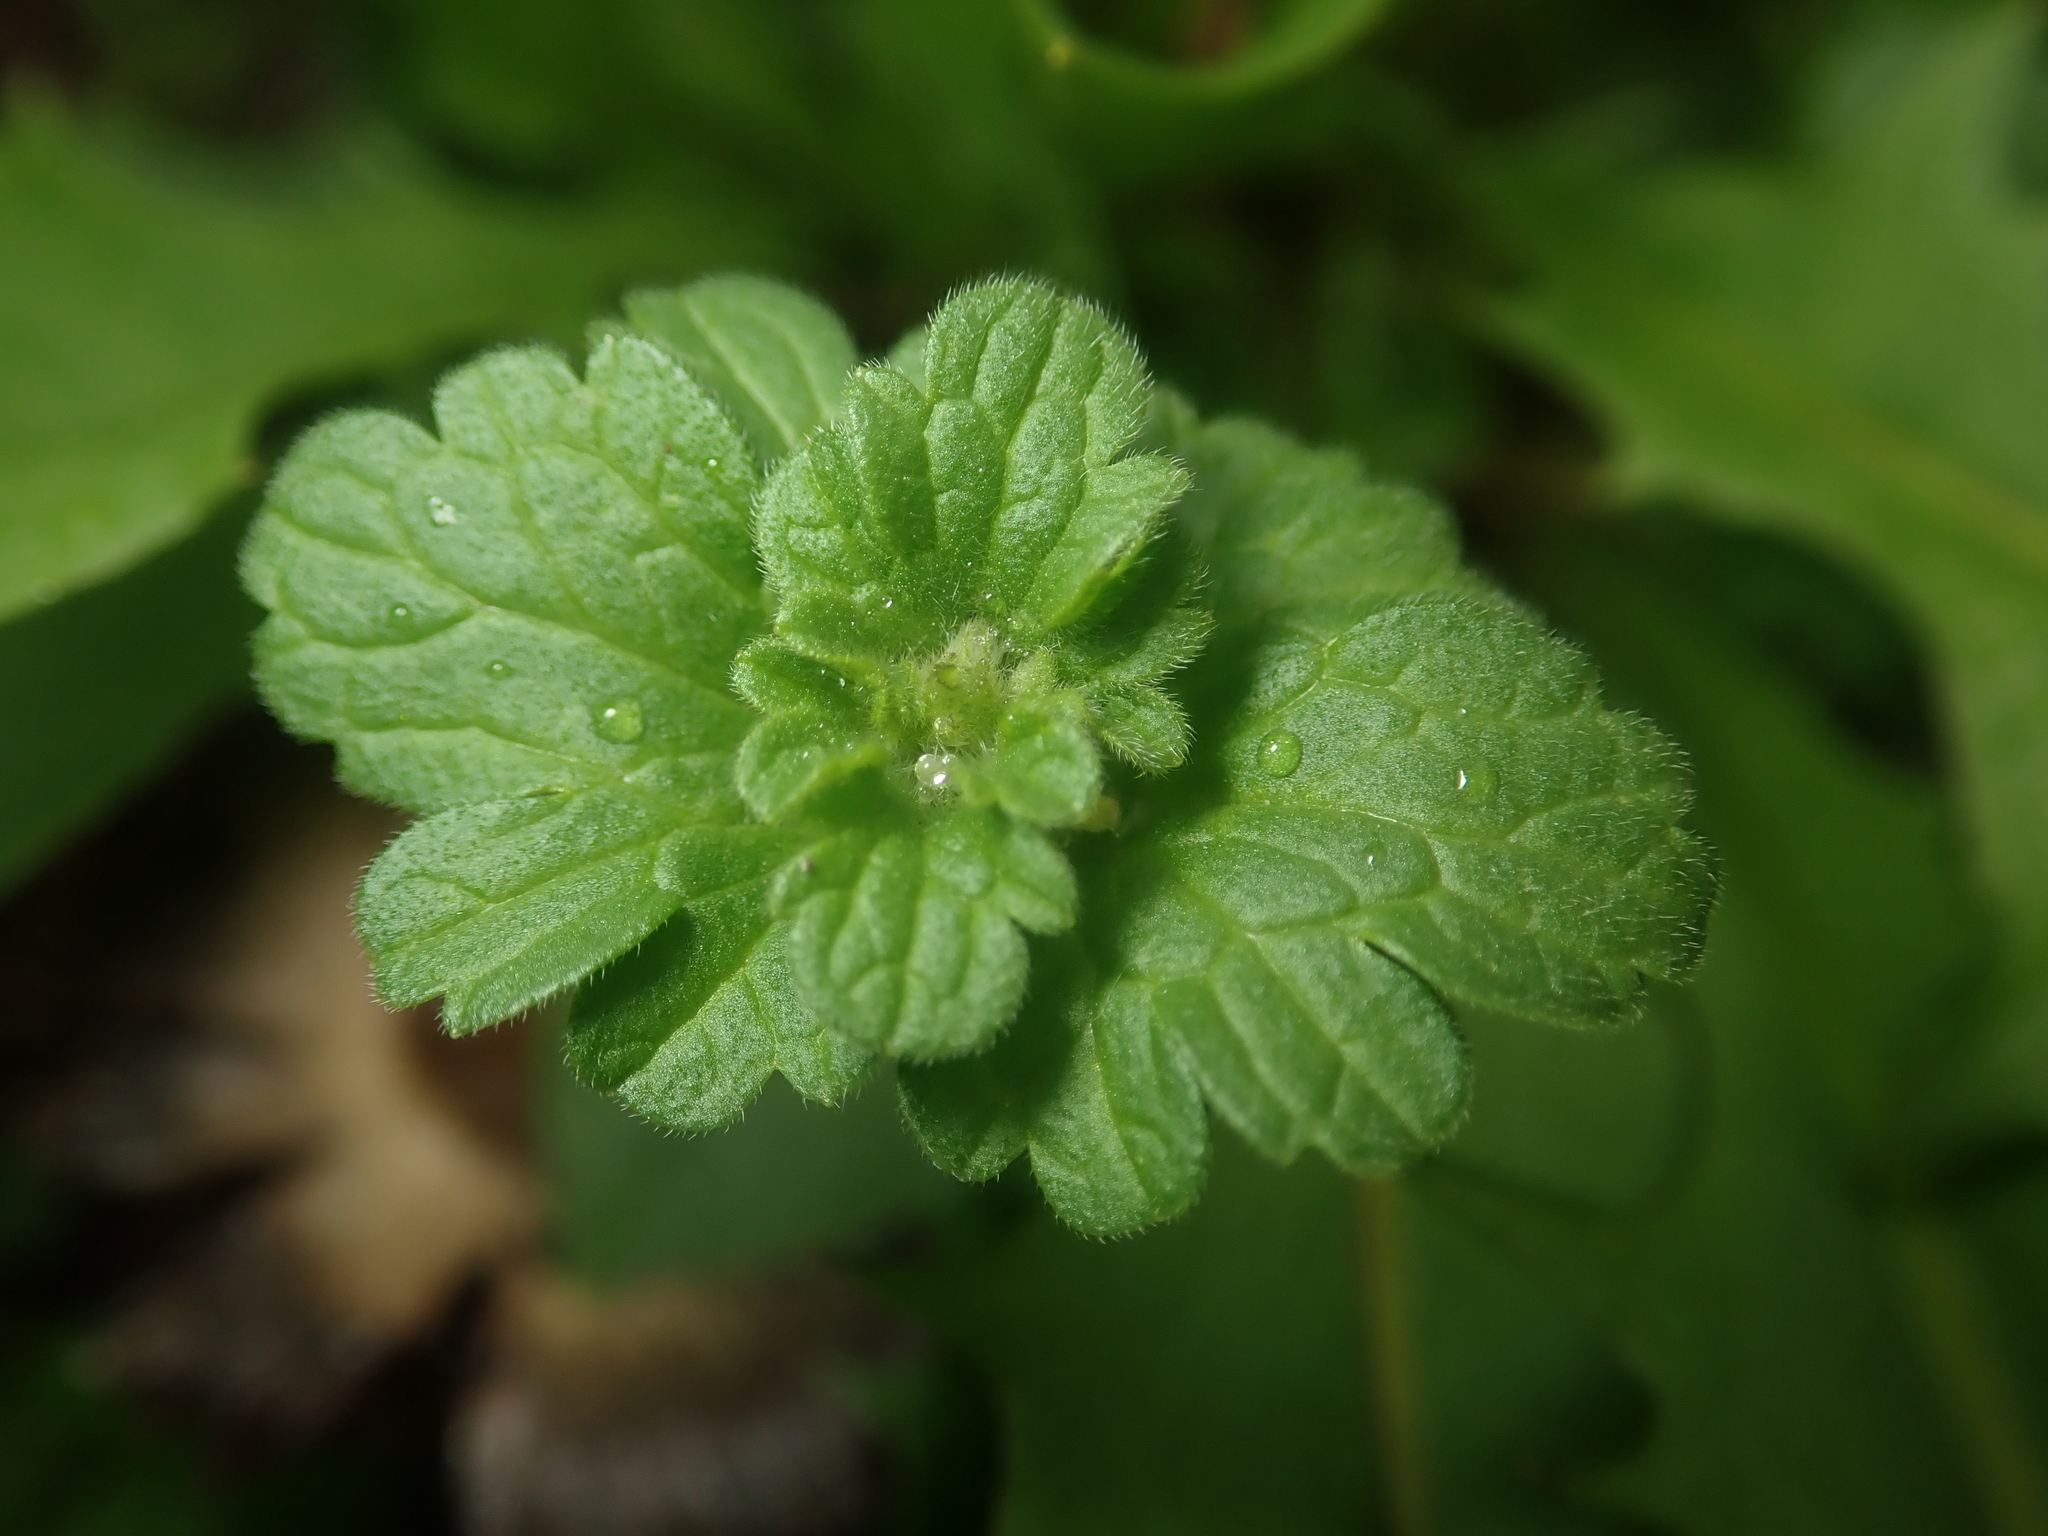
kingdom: Plantae
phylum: Tracheophyta
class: Magnoliopsida
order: Lamiales
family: Lamiaceae
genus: Lamium
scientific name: Lamium amplexicaule
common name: Henbit dead-nettle
